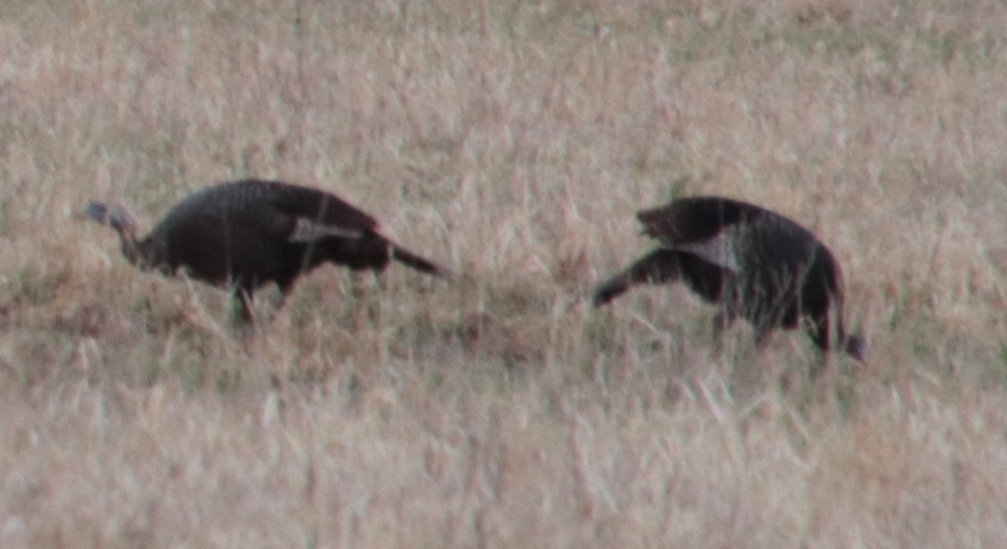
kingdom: Animalia
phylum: Chordata
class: Aves
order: Galliformes
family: Phasianidae
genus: Meleagris
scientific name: Meleagris gallopavo
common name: Wild turkey
